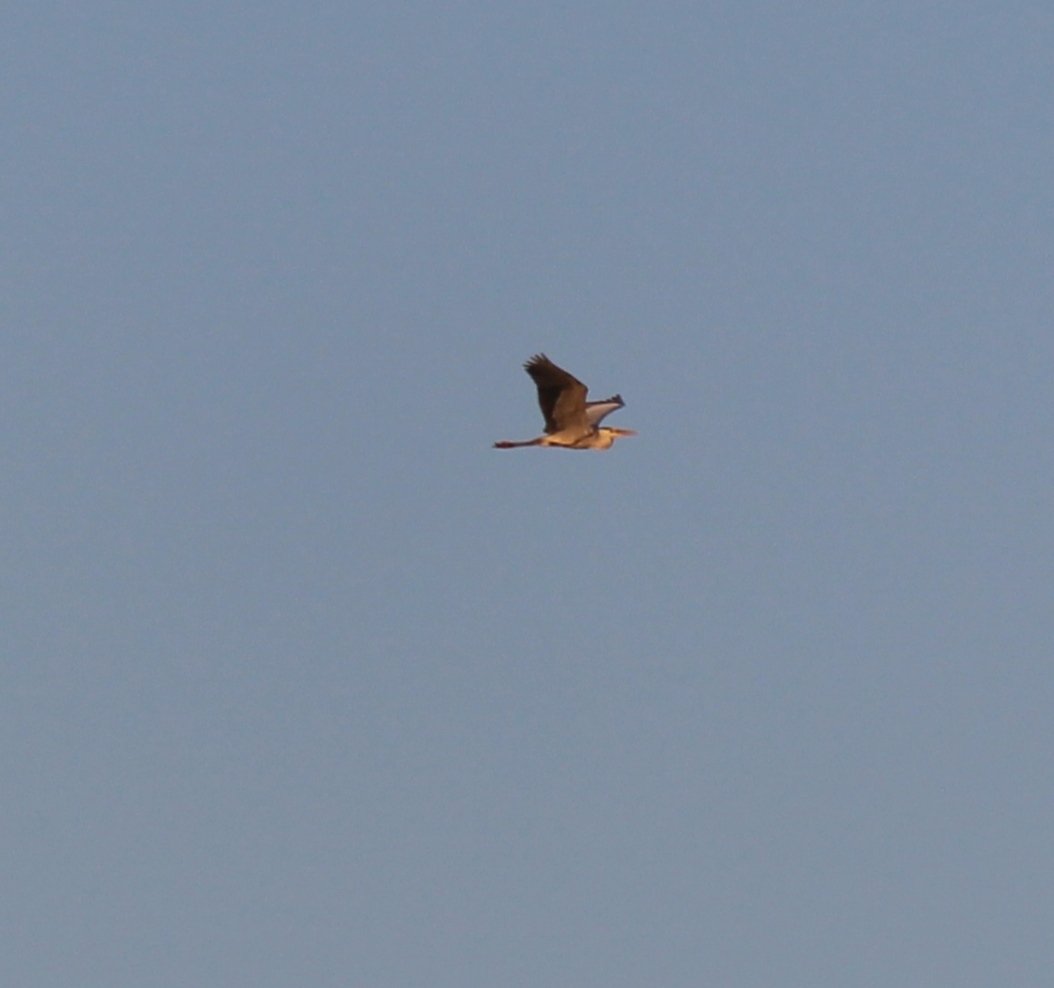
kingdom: Animalia
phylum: Chordata
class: Aves
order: Pelecaniformes
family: Ardeidae
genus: Ardea
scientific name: Ardea cinerea
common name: Grey heron
